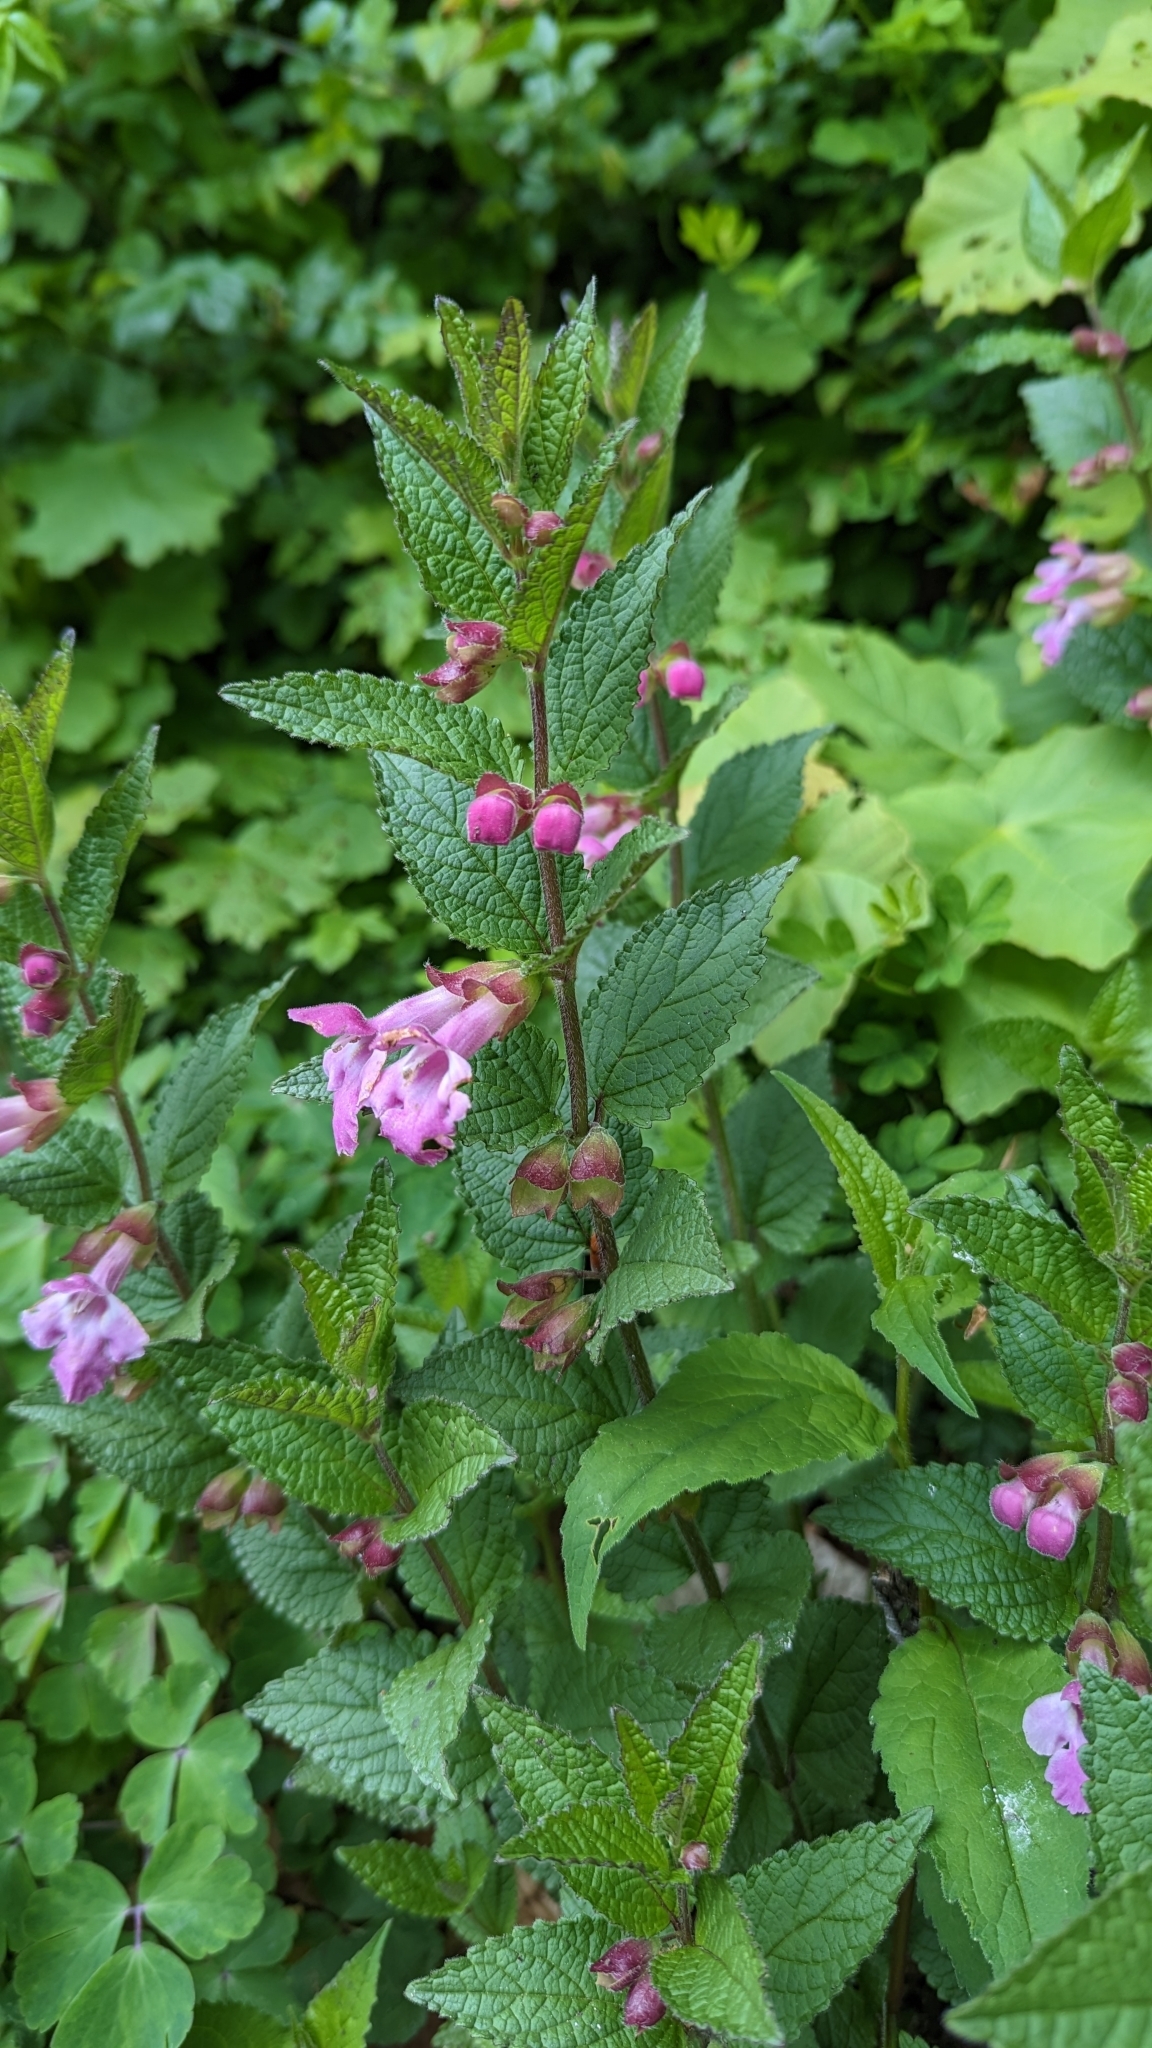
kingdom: Plantae
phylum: Tracheophyta
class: Magnoliopsida
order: Lamiales
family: Lamiaceae
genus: Melittis
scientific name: Melittis melissophyllum
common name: Bastard balm
